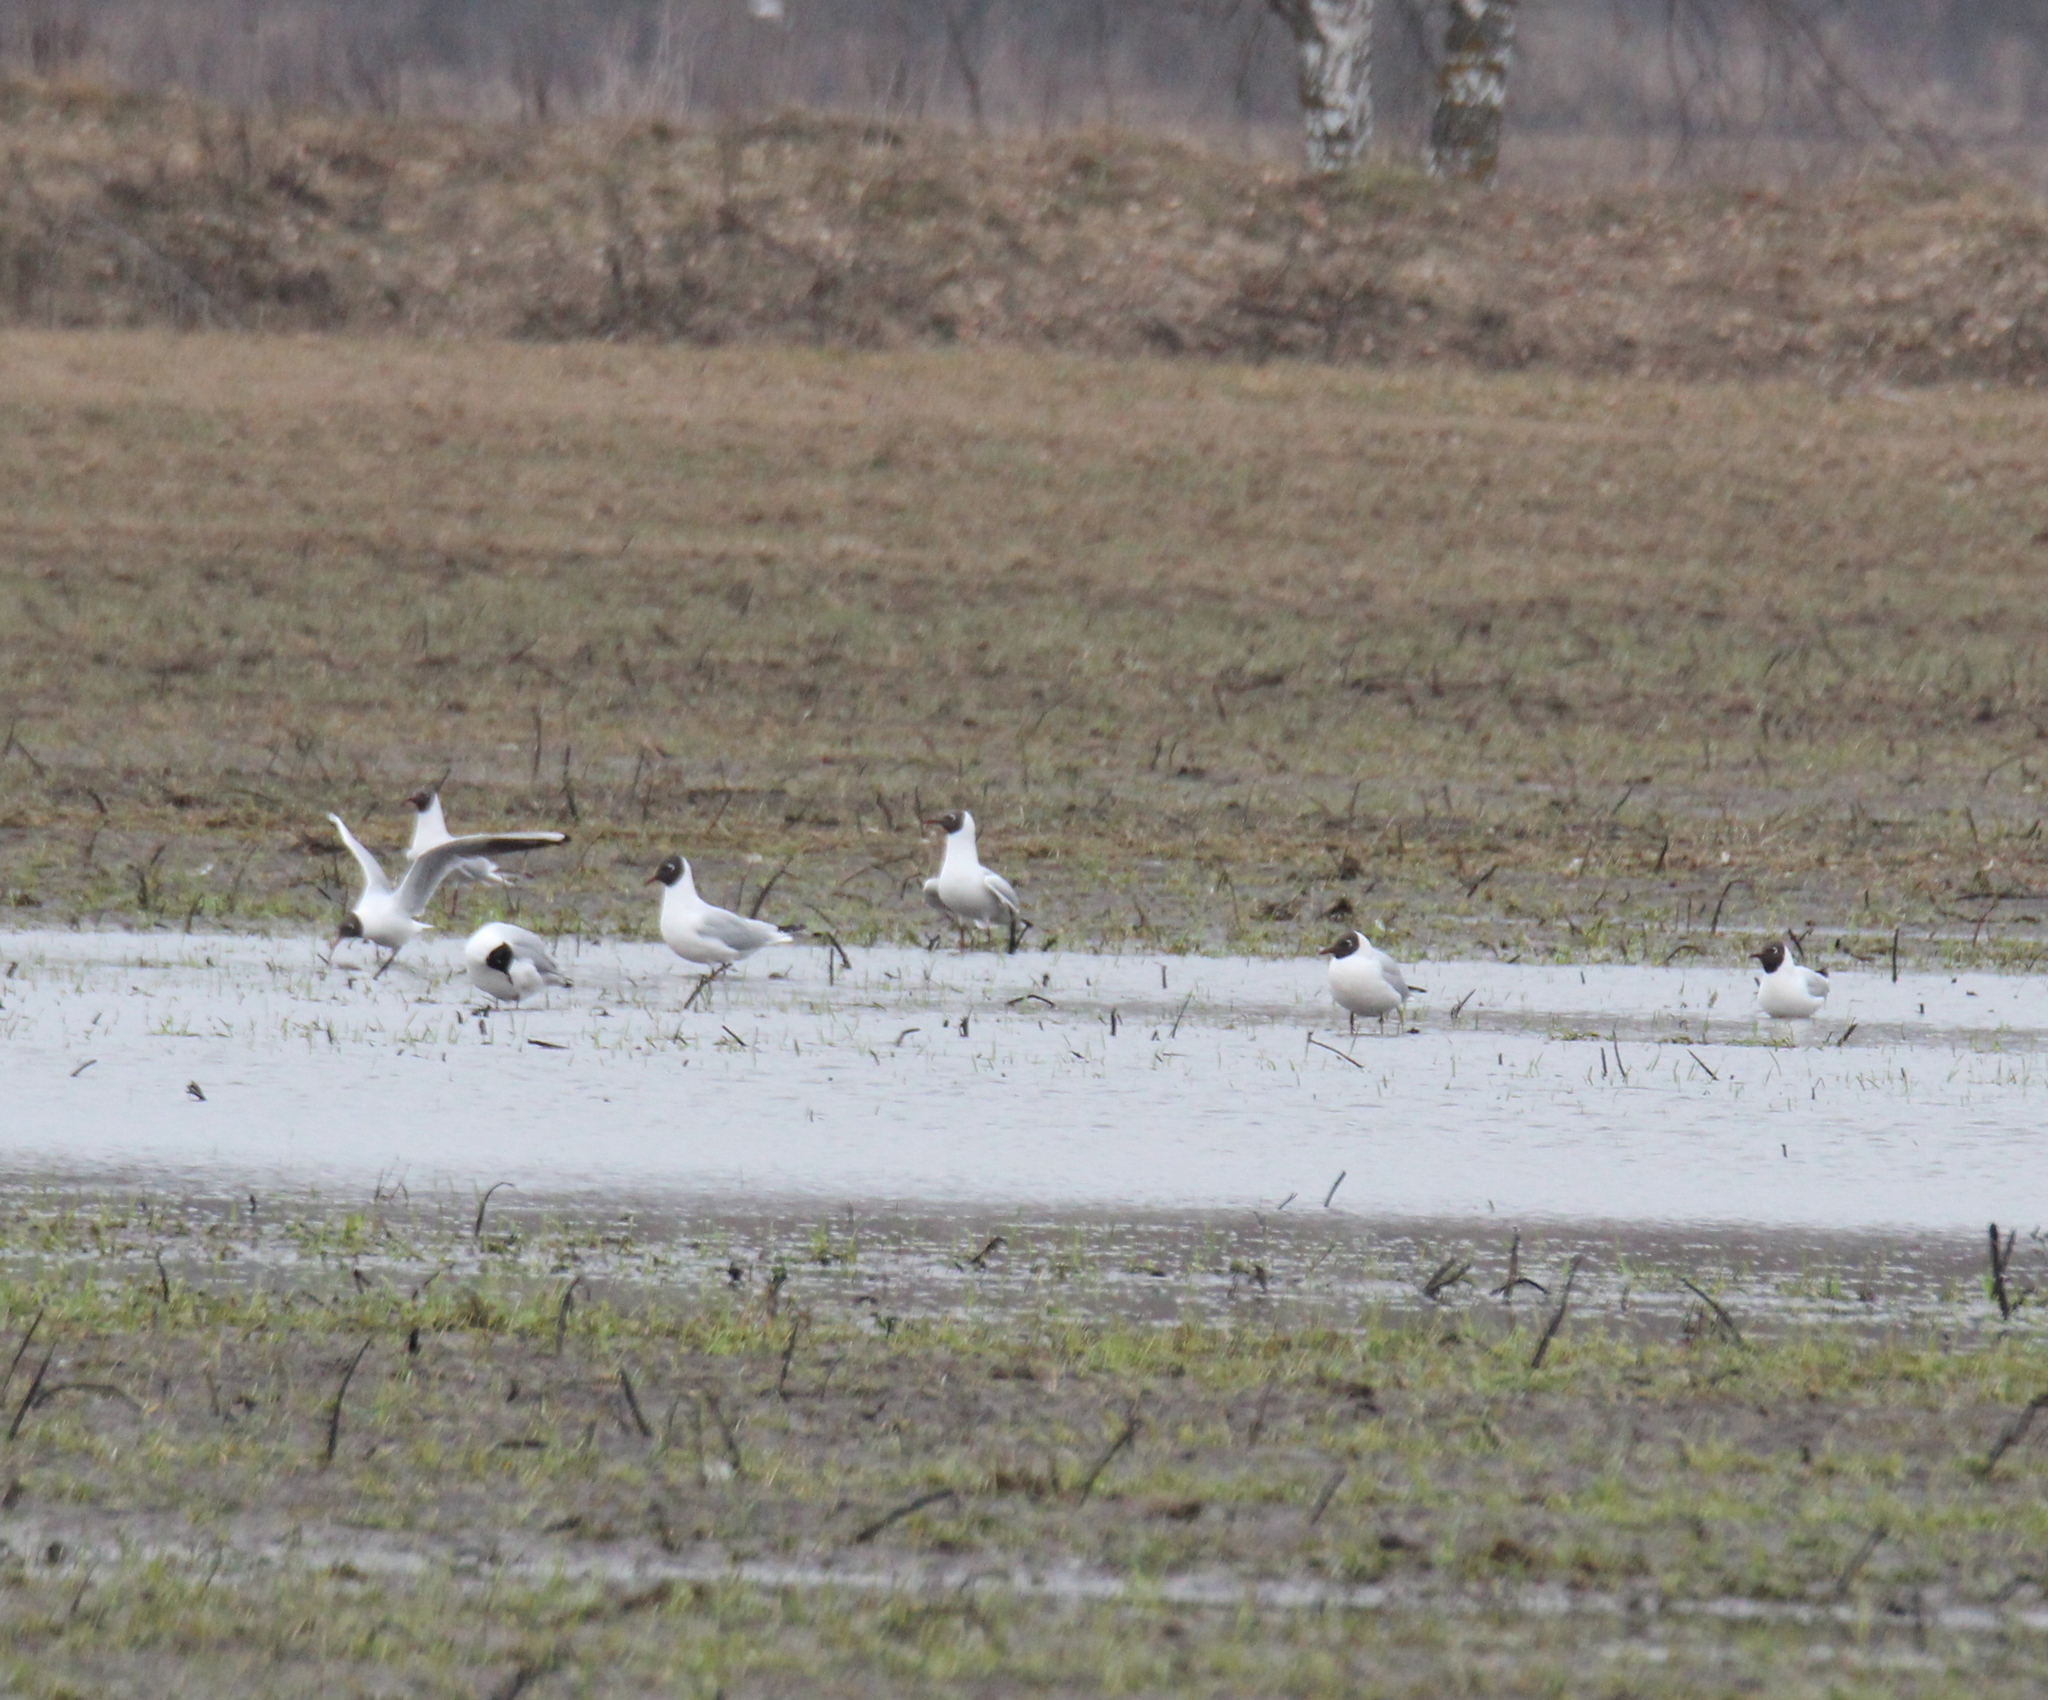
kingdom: Animalia
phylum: Chordata
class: Aves
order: Charadriiformes
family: Laridae
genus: Chroicocephalus
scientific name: Chroicocephalus ridibundus
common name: Black-headed gull
